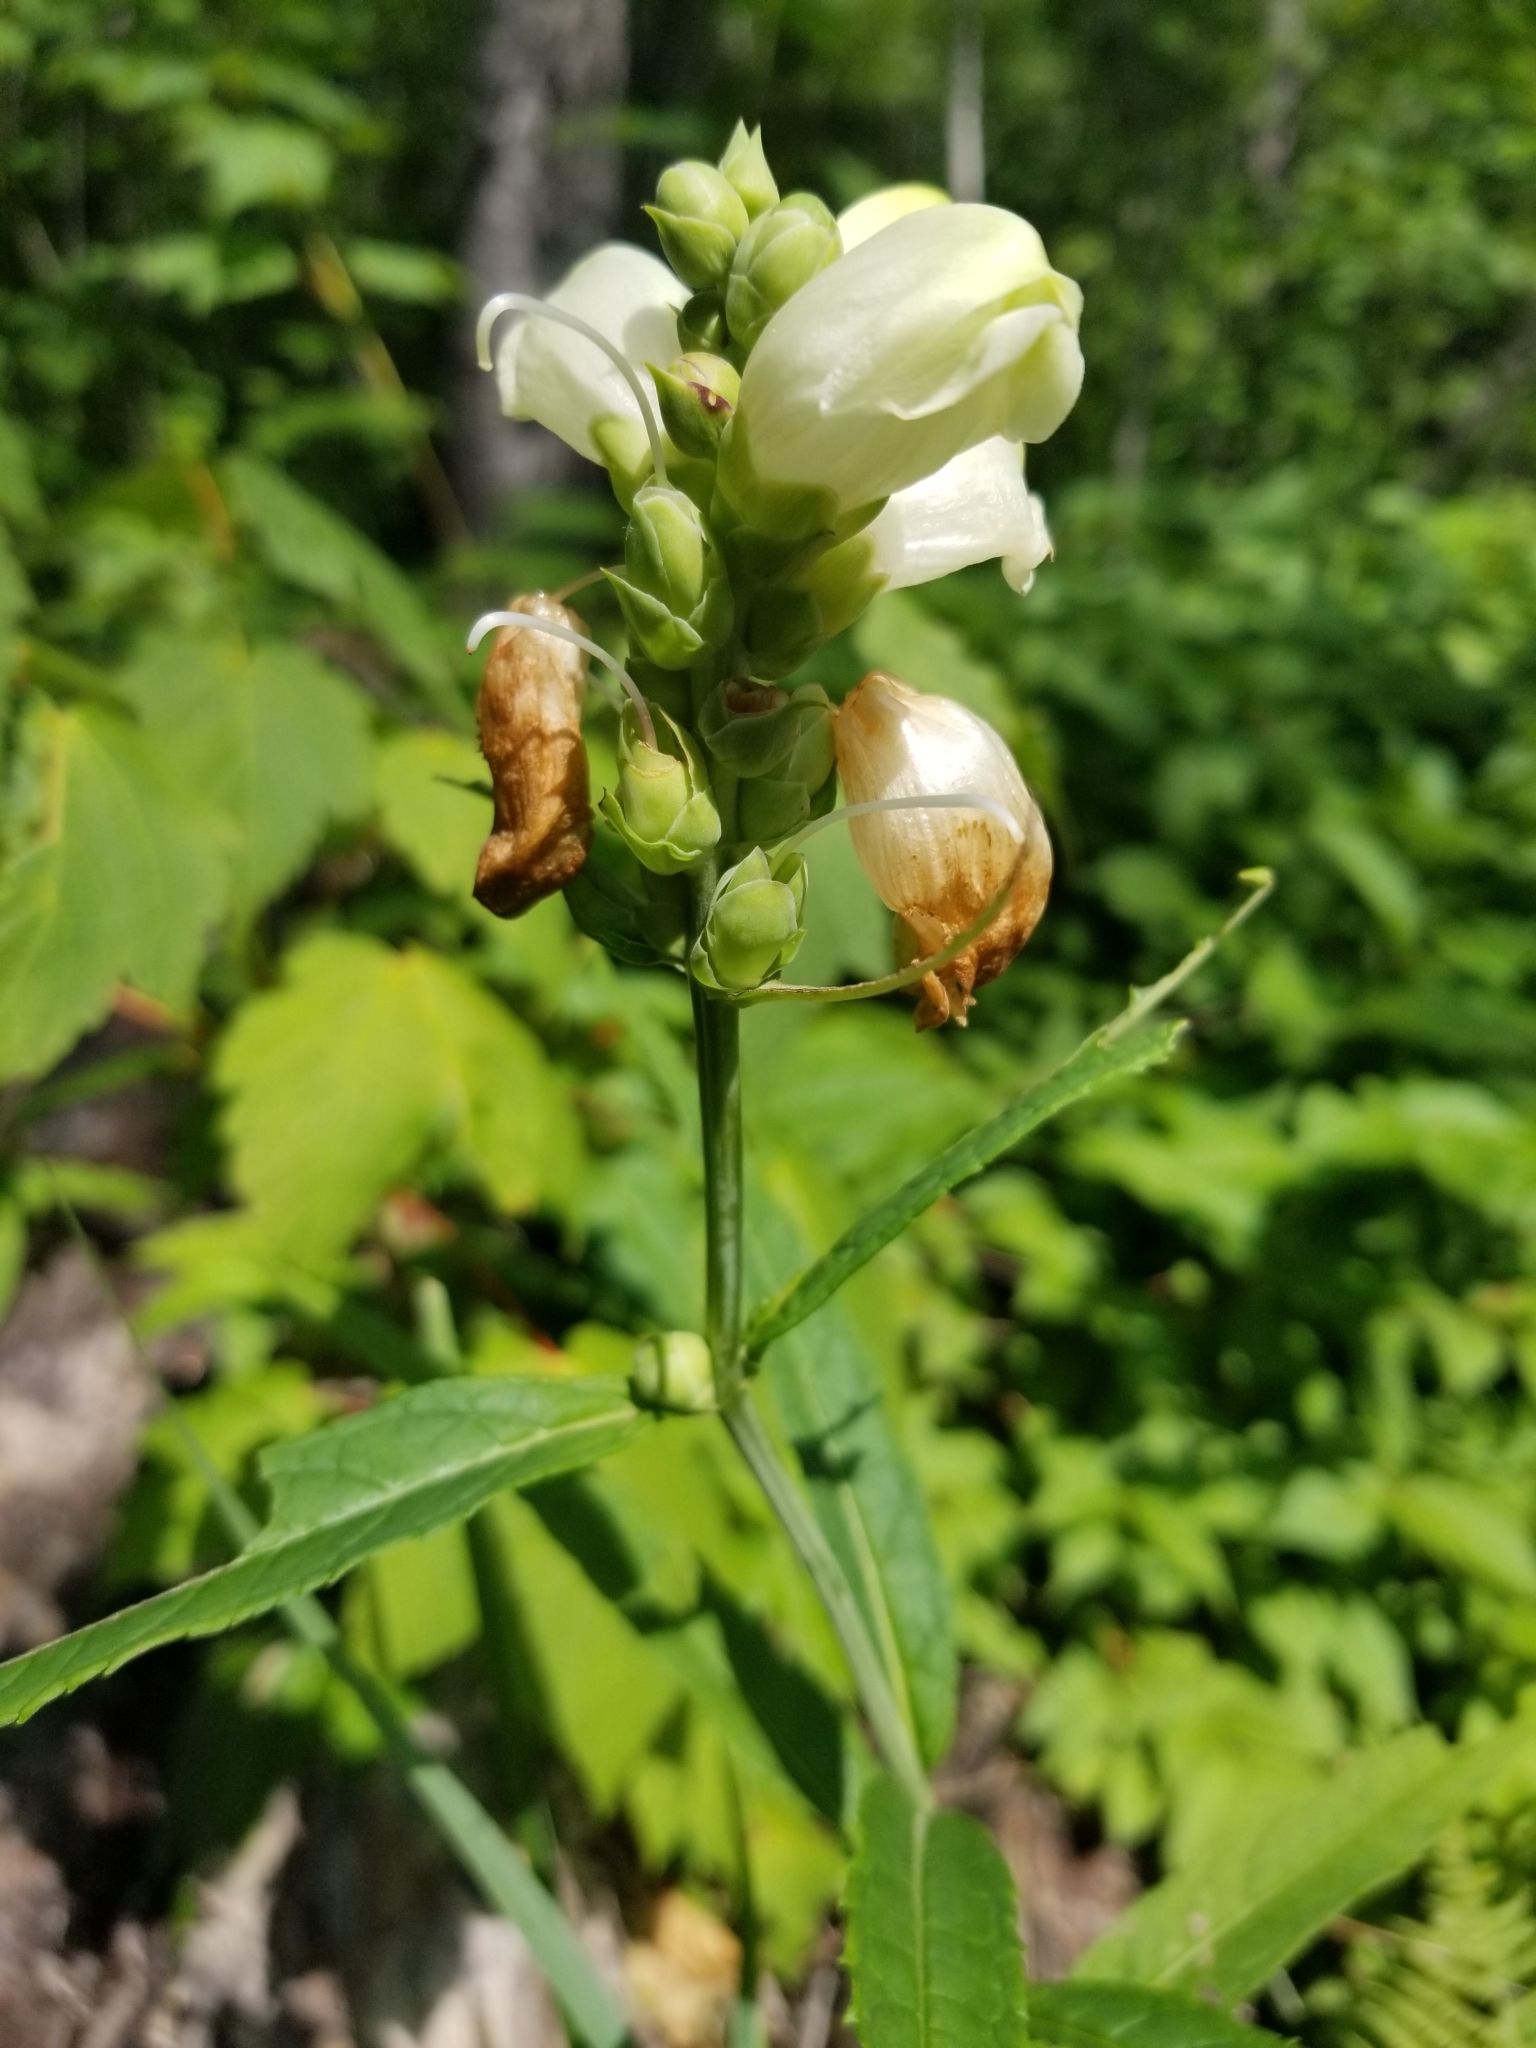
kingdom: Plantae
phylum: Tracheophyta
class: Magnoliopsida
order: Lamiales
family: Plantaginaceae
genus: Chelone
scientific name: Chelone glabra
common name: Snakehead
